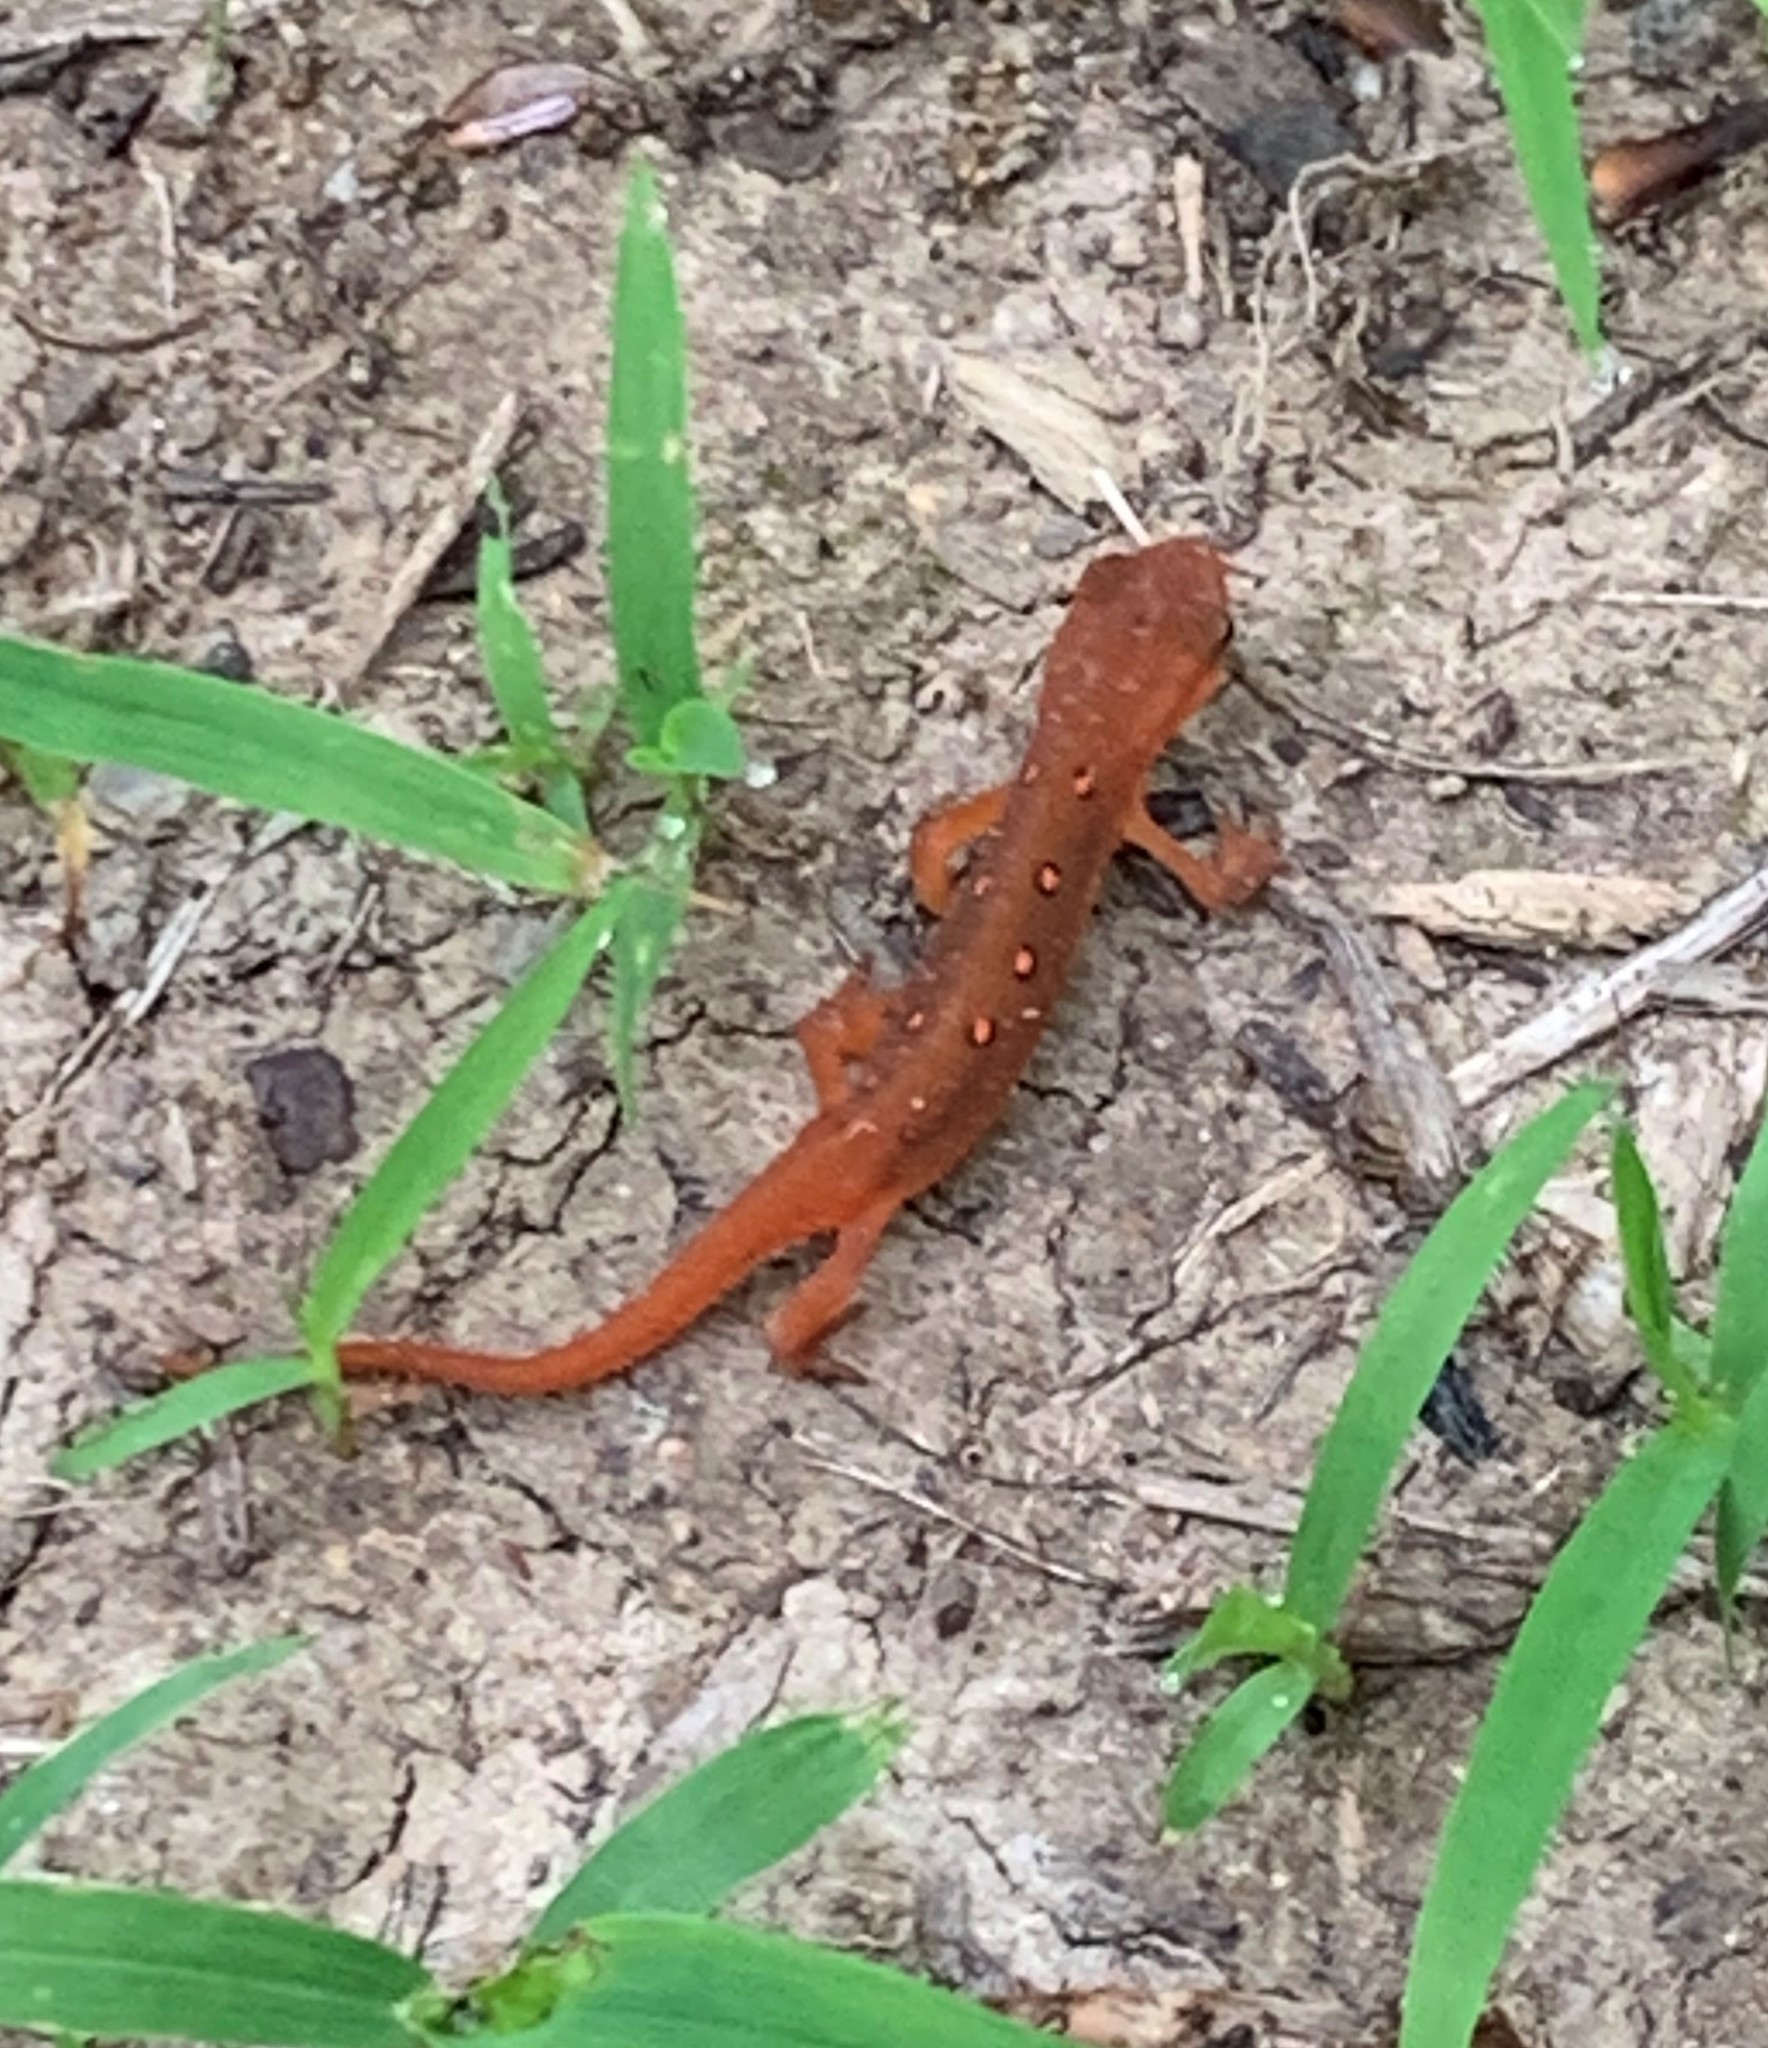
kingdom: Animalia
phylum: Chordata
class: Amphibia
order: Caudata
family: Salamandridae
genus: Notophthalmus
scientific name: Notophthalmus viridescens
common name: Eastern newt
